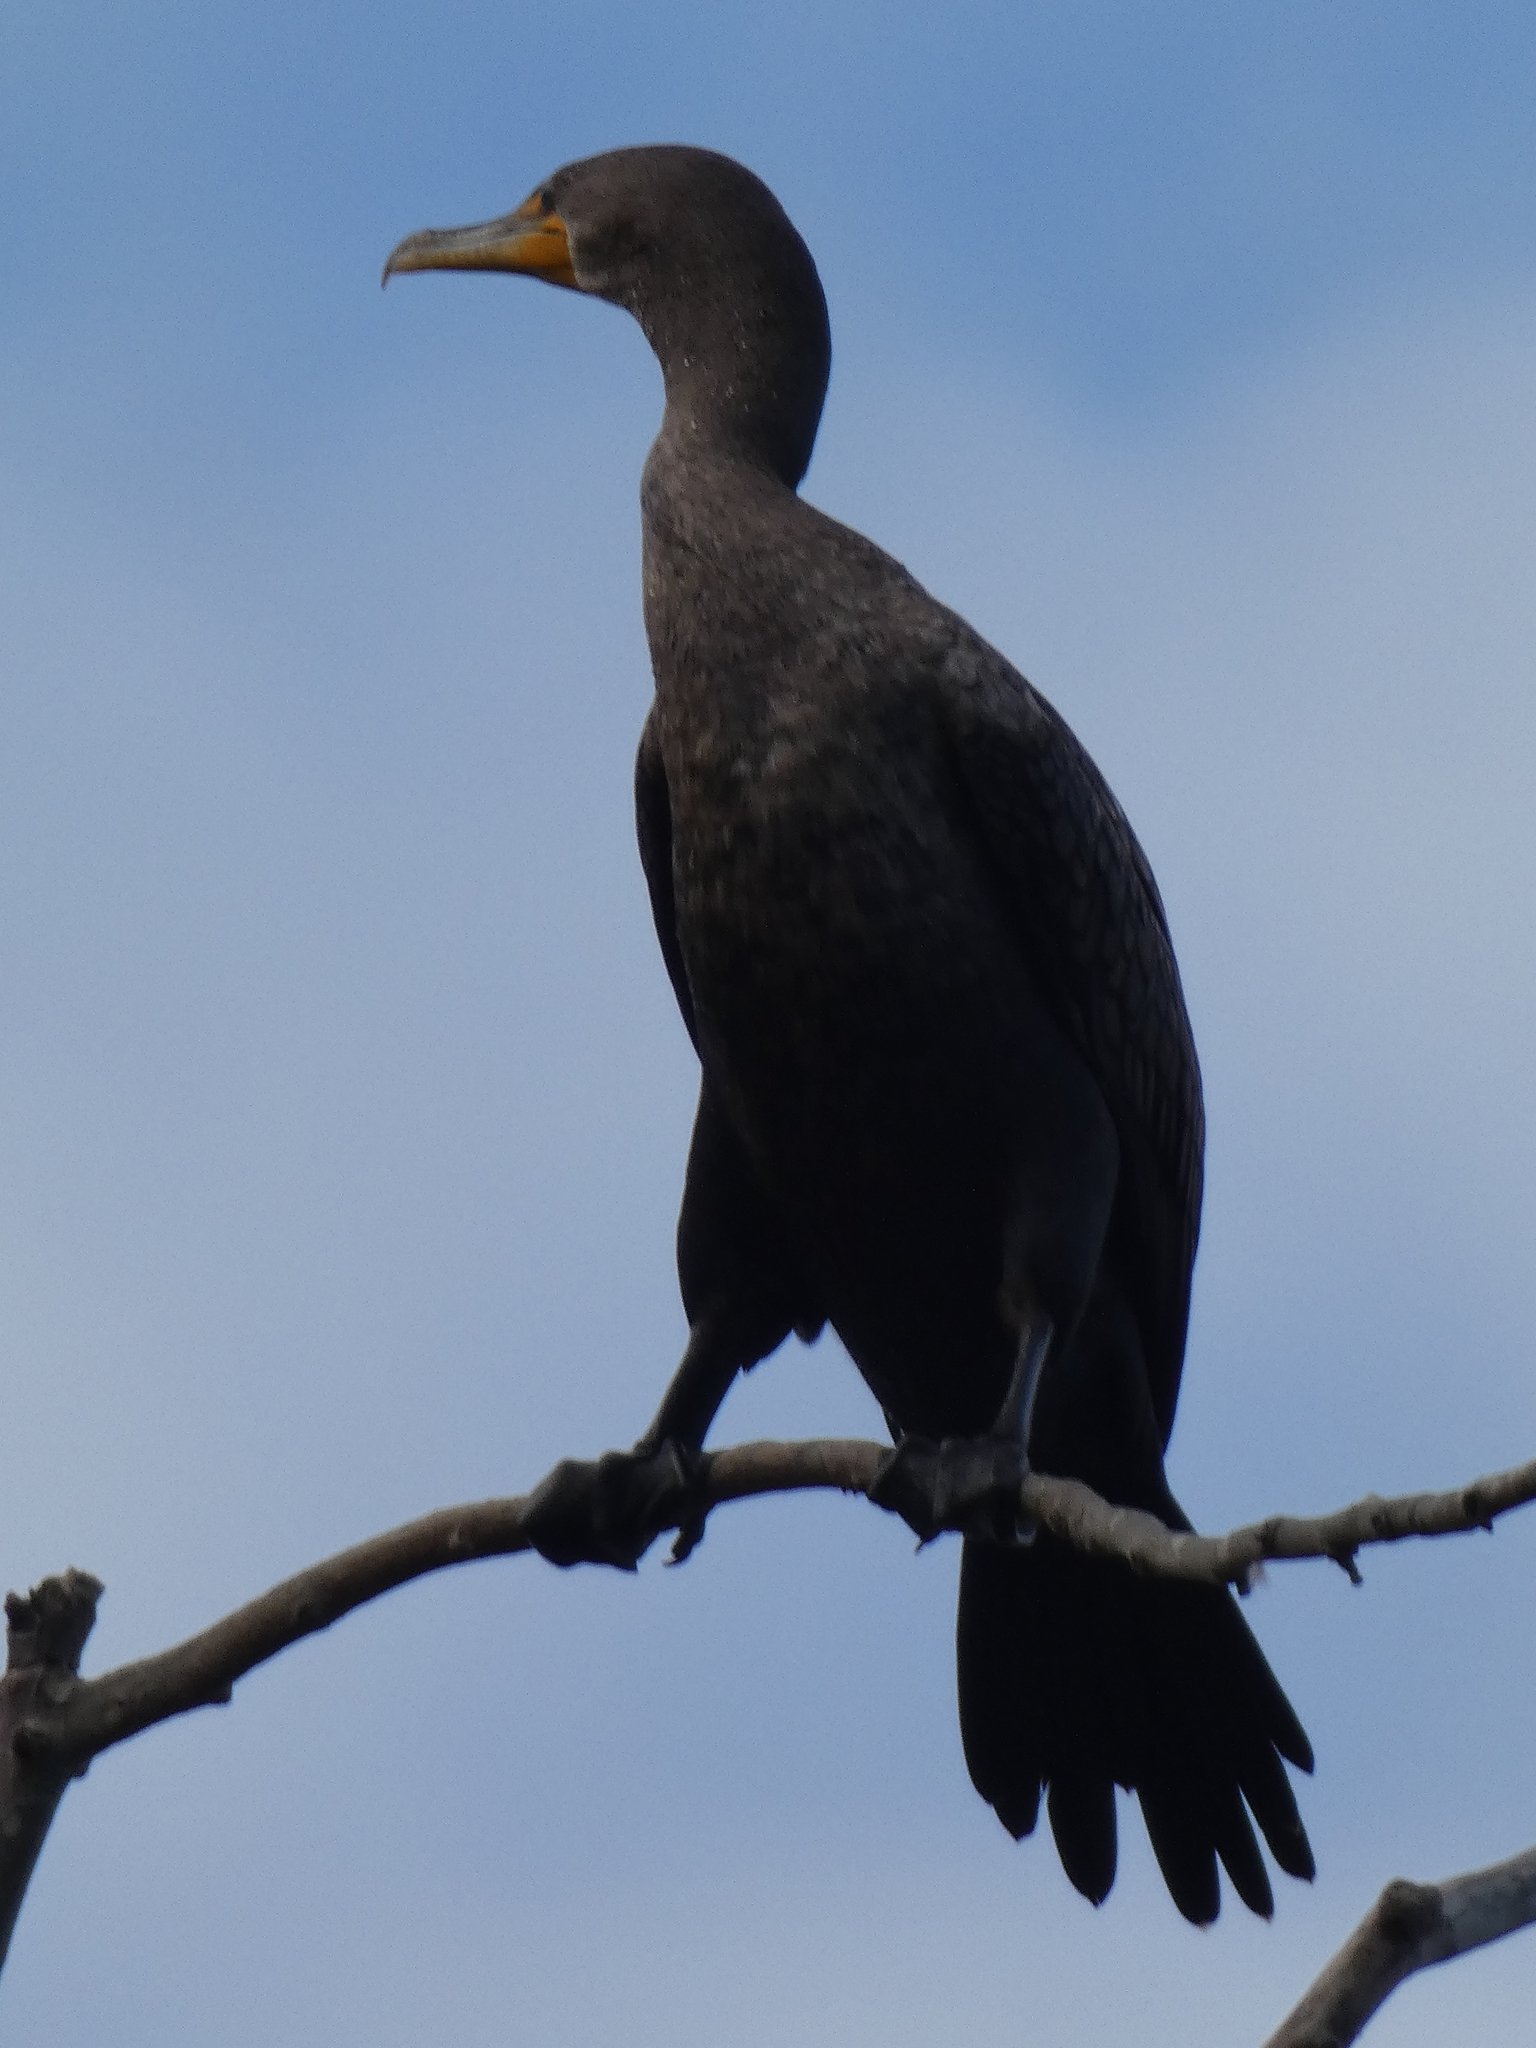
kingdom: Animalia
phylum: Chordata
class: Aves
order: Suliformes
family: Phalacrocoracidae
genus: Phalacrocorax
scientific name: Phalacrocorax auritus
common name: Double-crested cormorant
